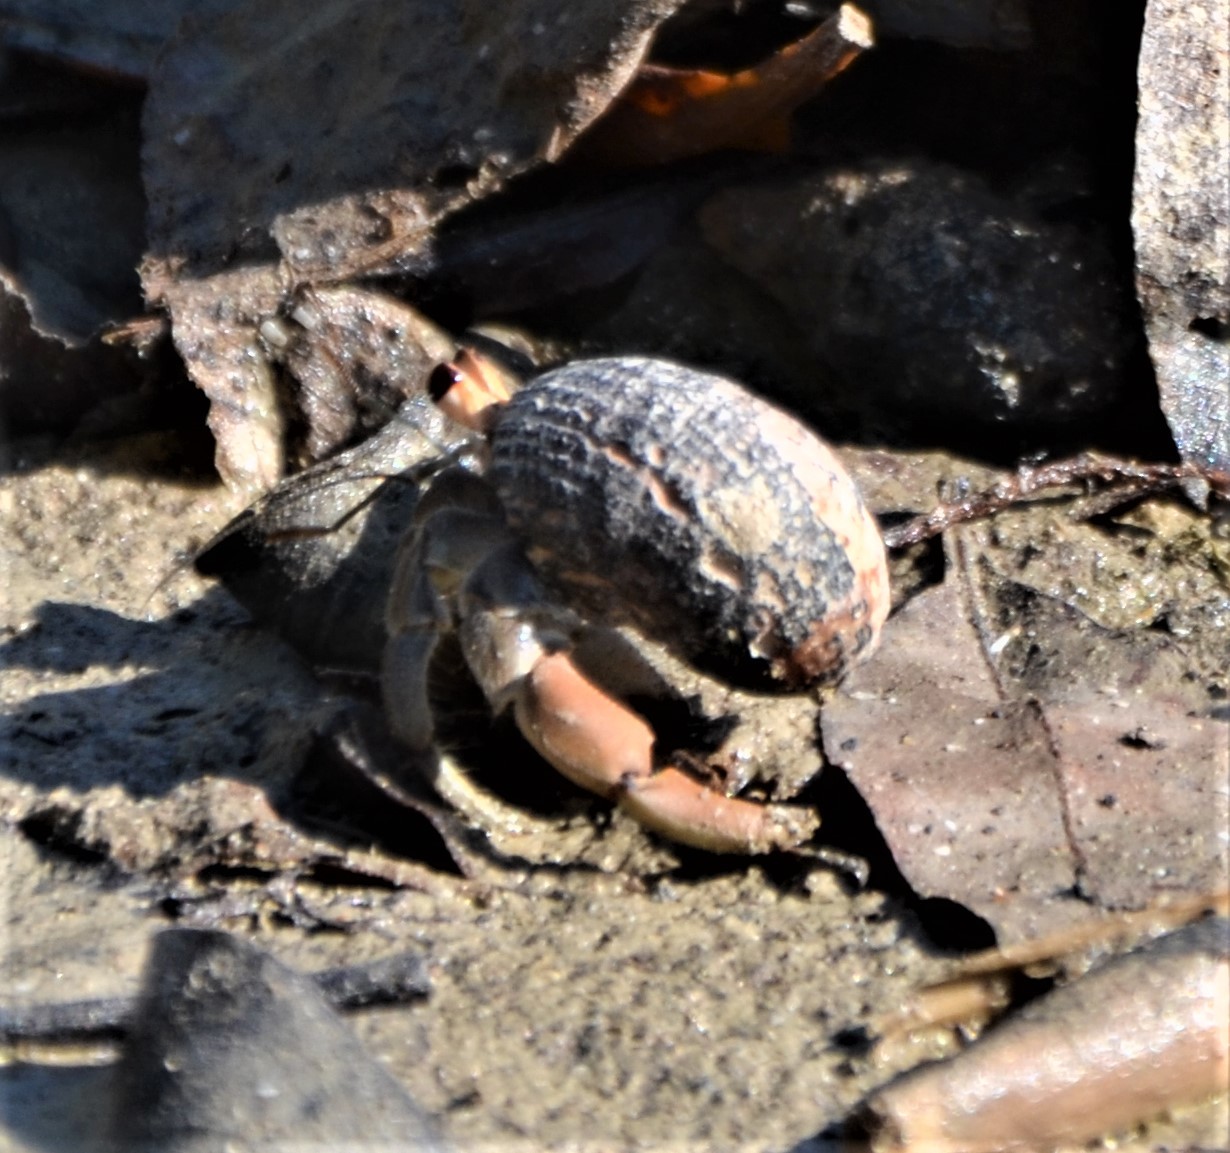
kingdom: Animalia
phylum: Arthropoda
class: Malacostraca
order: Decapoda
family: Coenobitidae
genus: Coenobita
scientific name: Coenobita compressus
